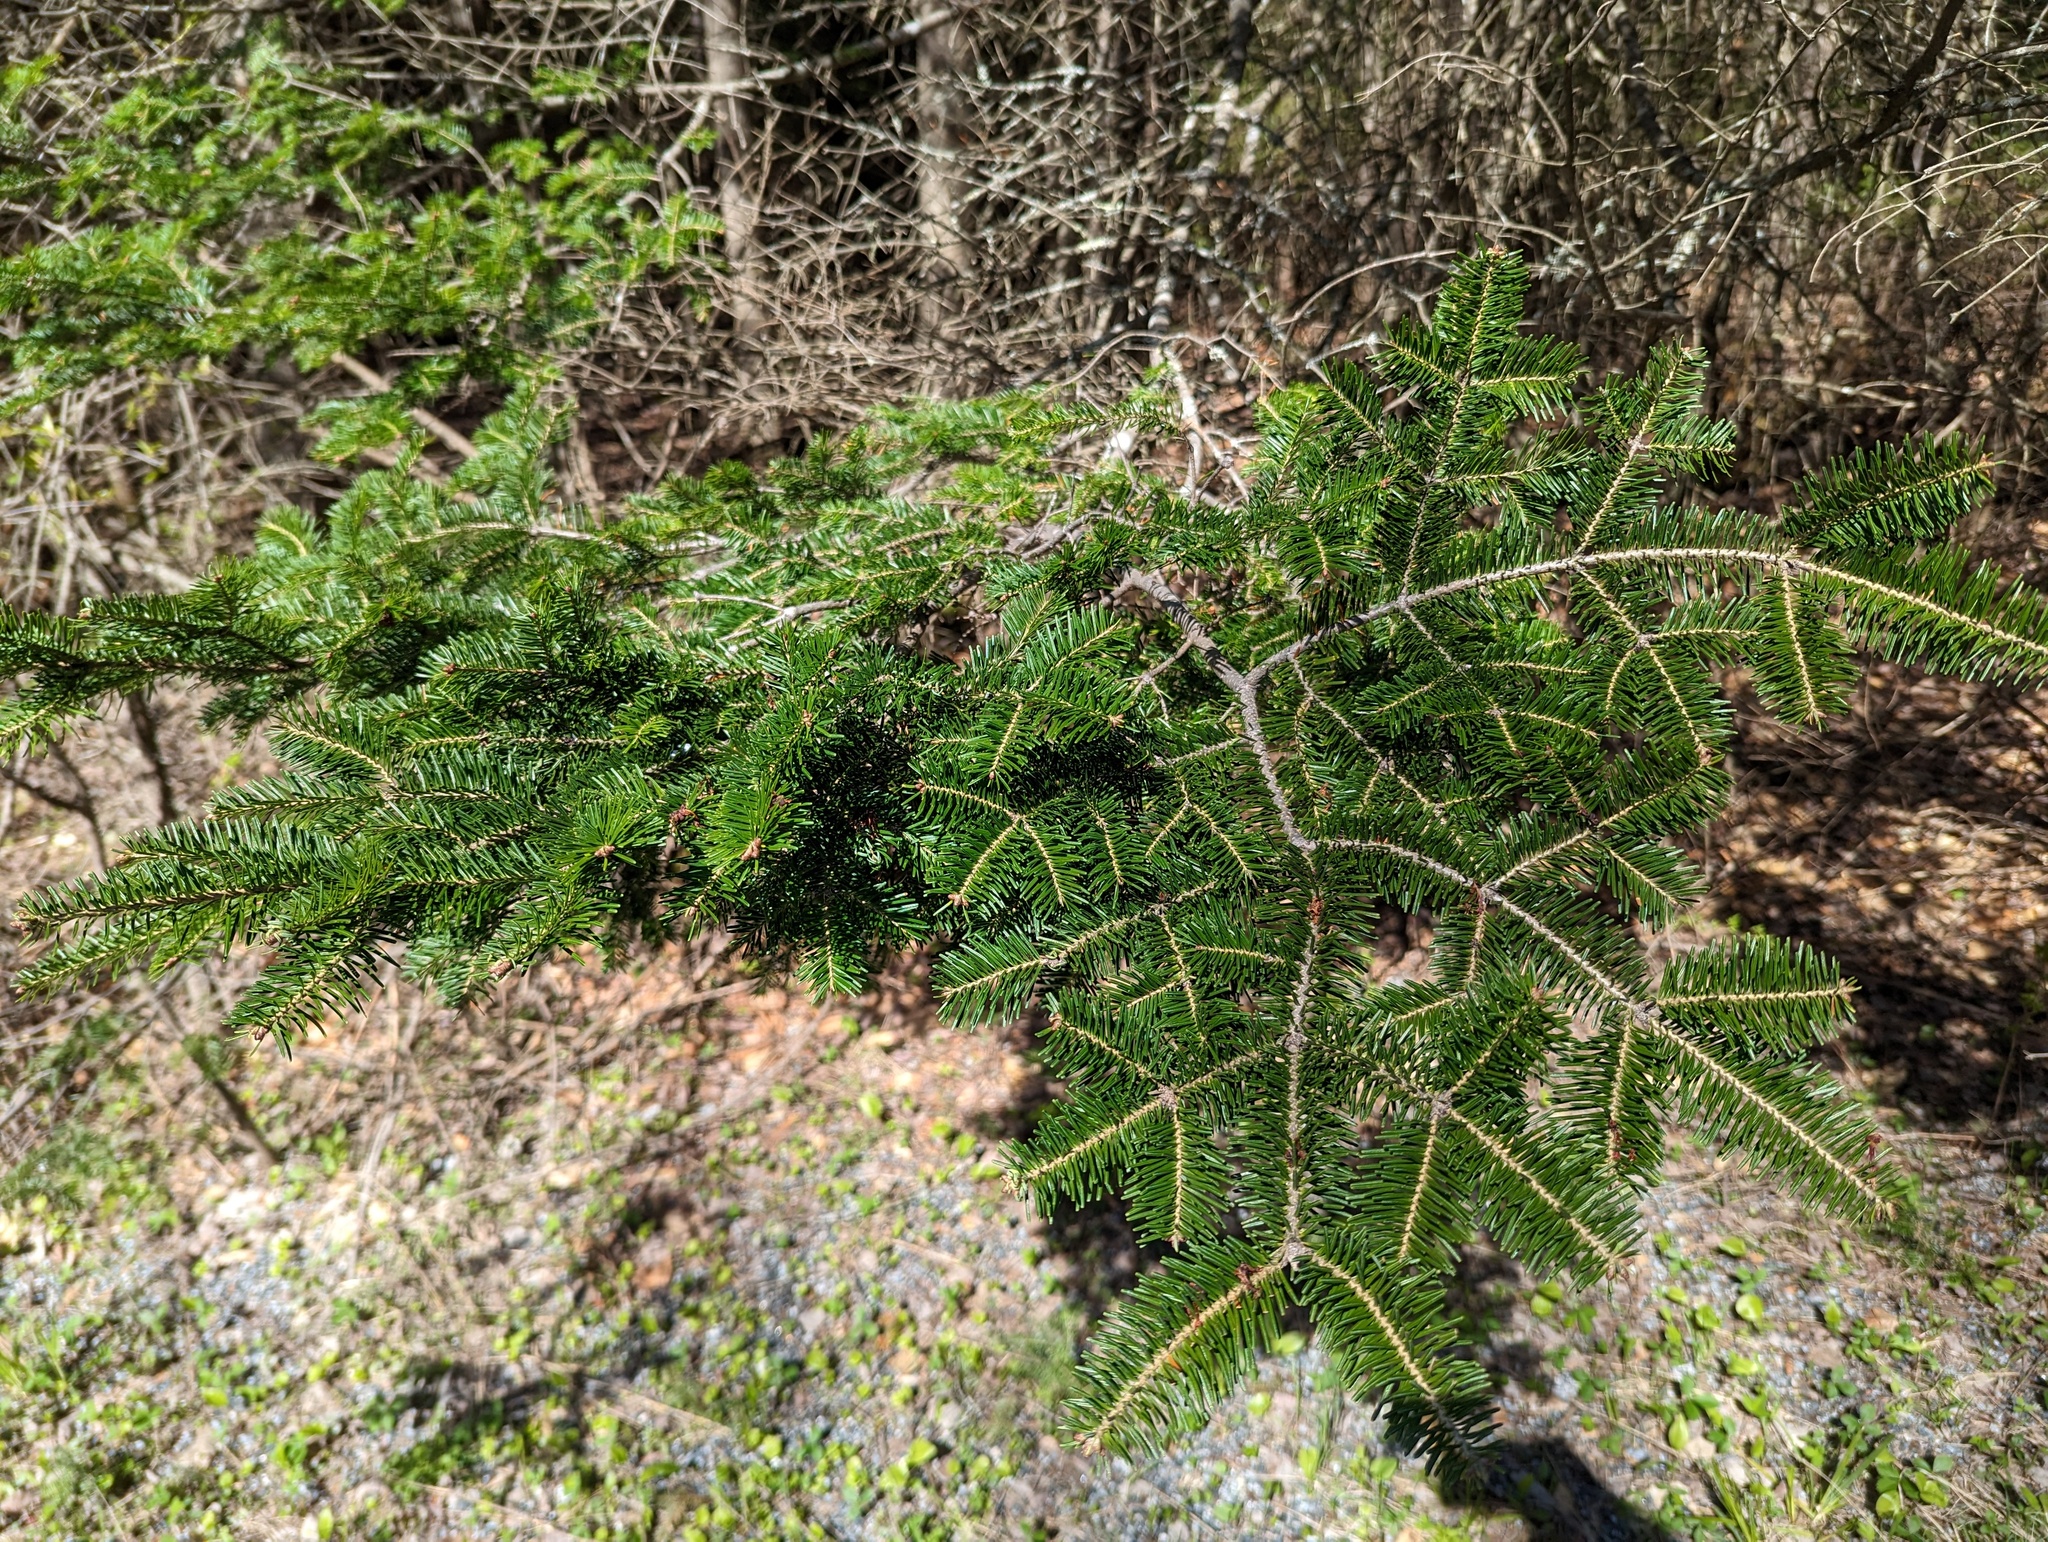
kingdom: Plantae
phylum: Tracheophyta
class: Pinopsida
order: Pinales
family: Pinaceae
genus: Abies
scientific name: Abies balsamea
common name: Balsam fir
